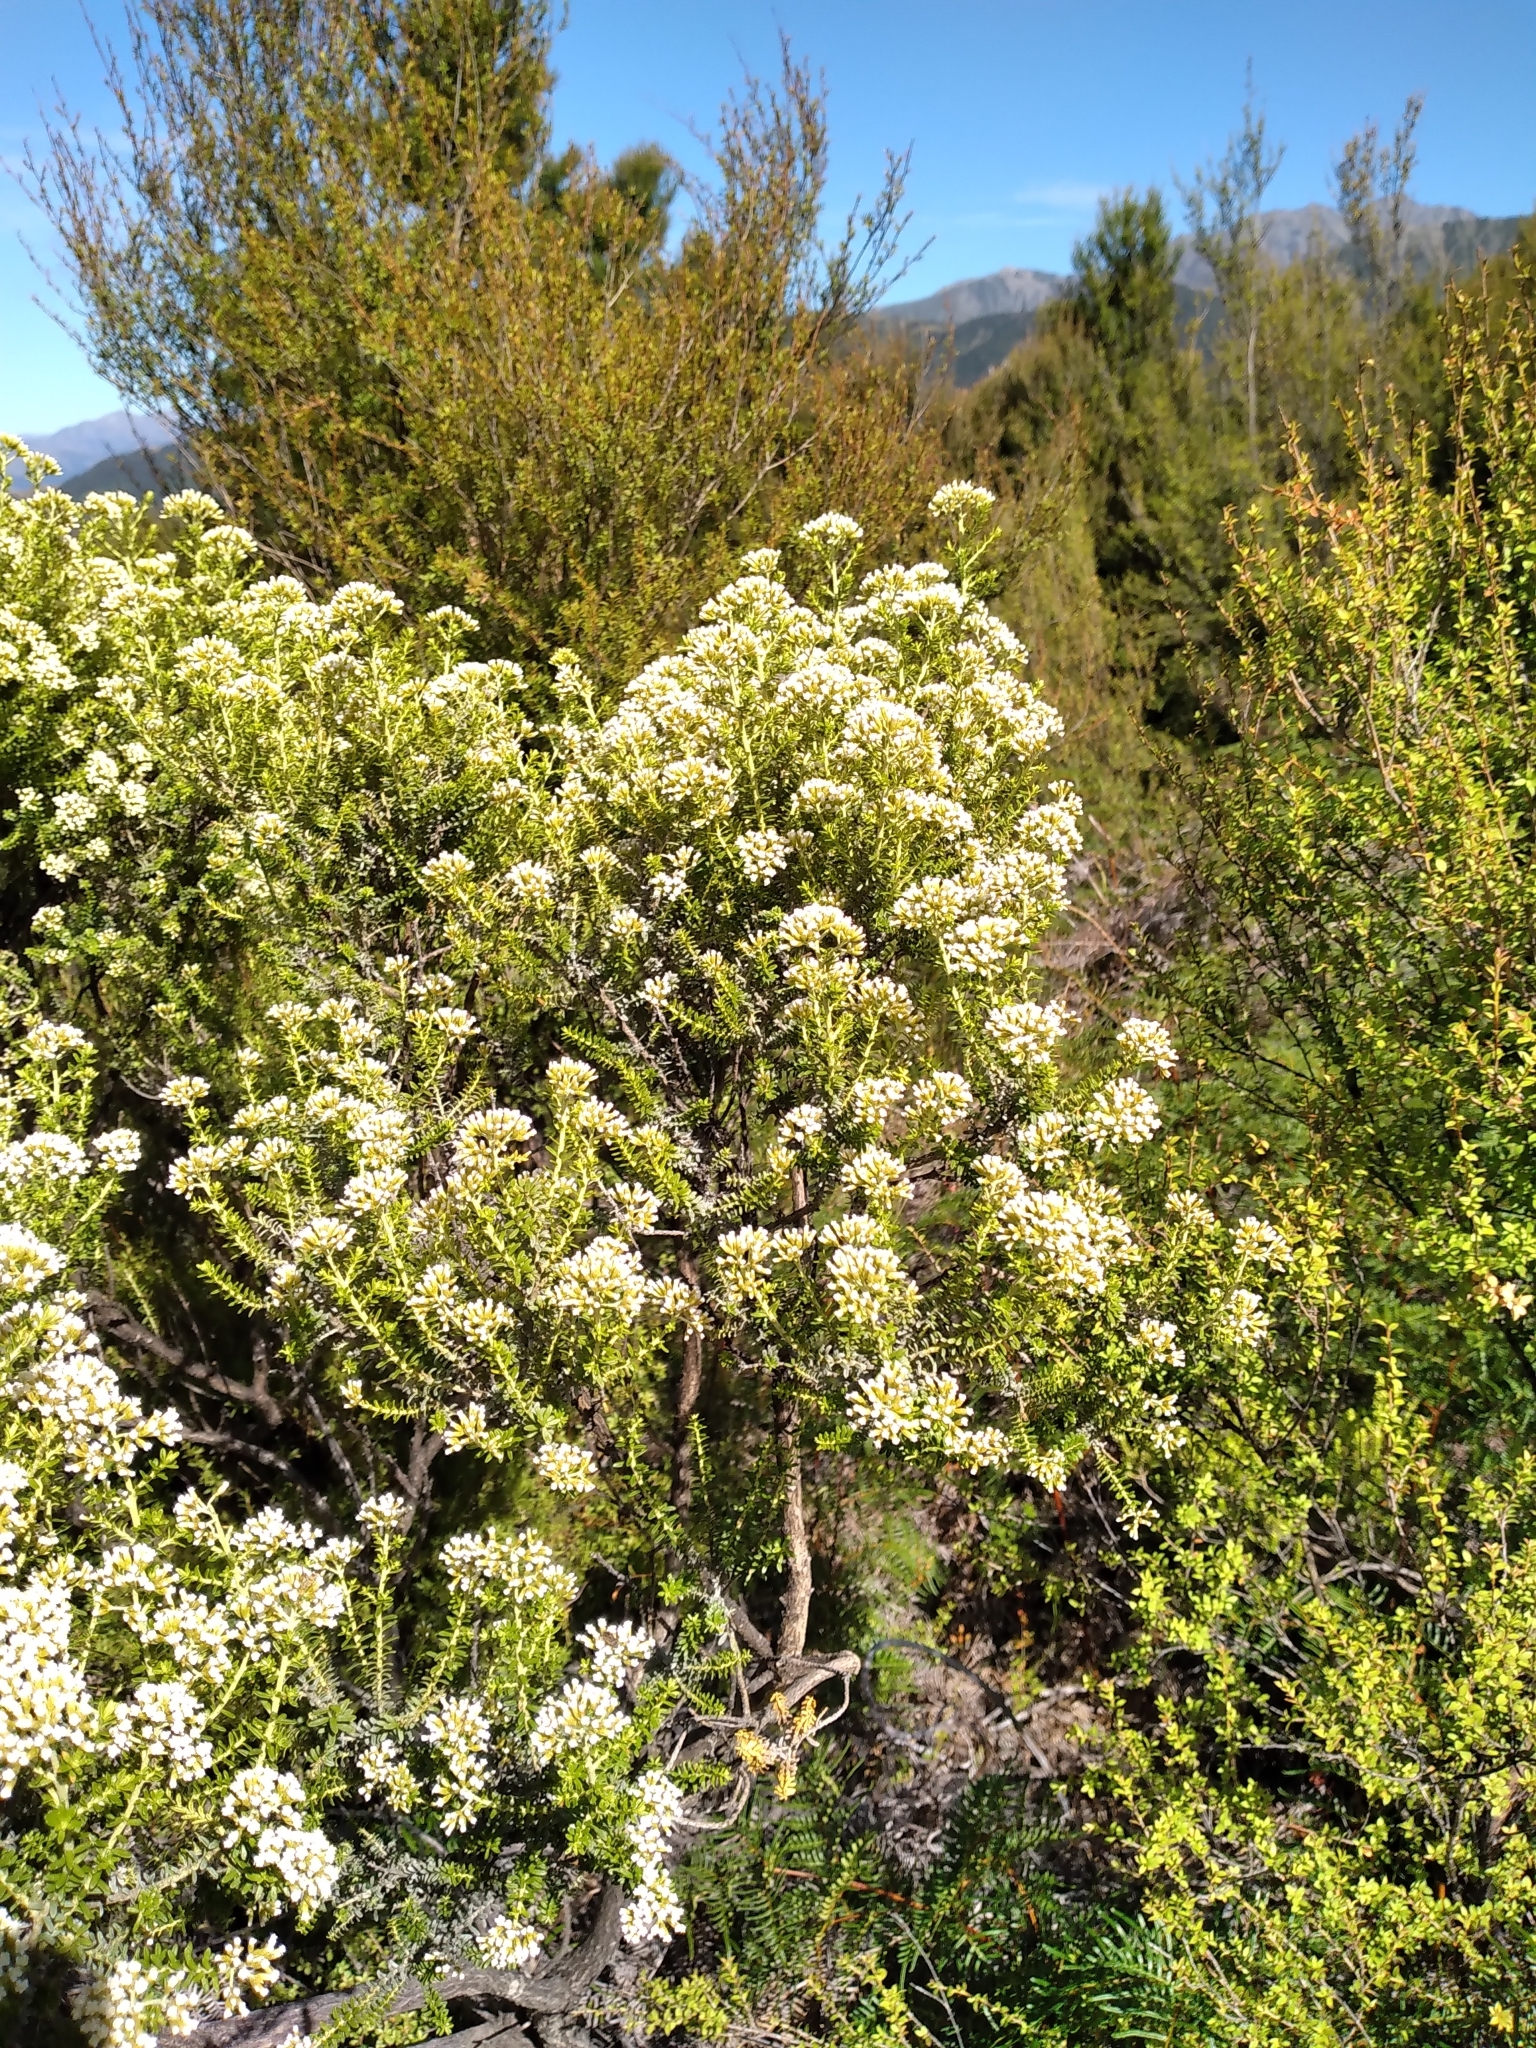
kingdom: Plantae
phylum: Tracheophyta
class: Magnoliopsida
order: Asterales
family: Asteraceae
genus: Ozothamnus
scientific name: Ozothamnus leptophyllus
